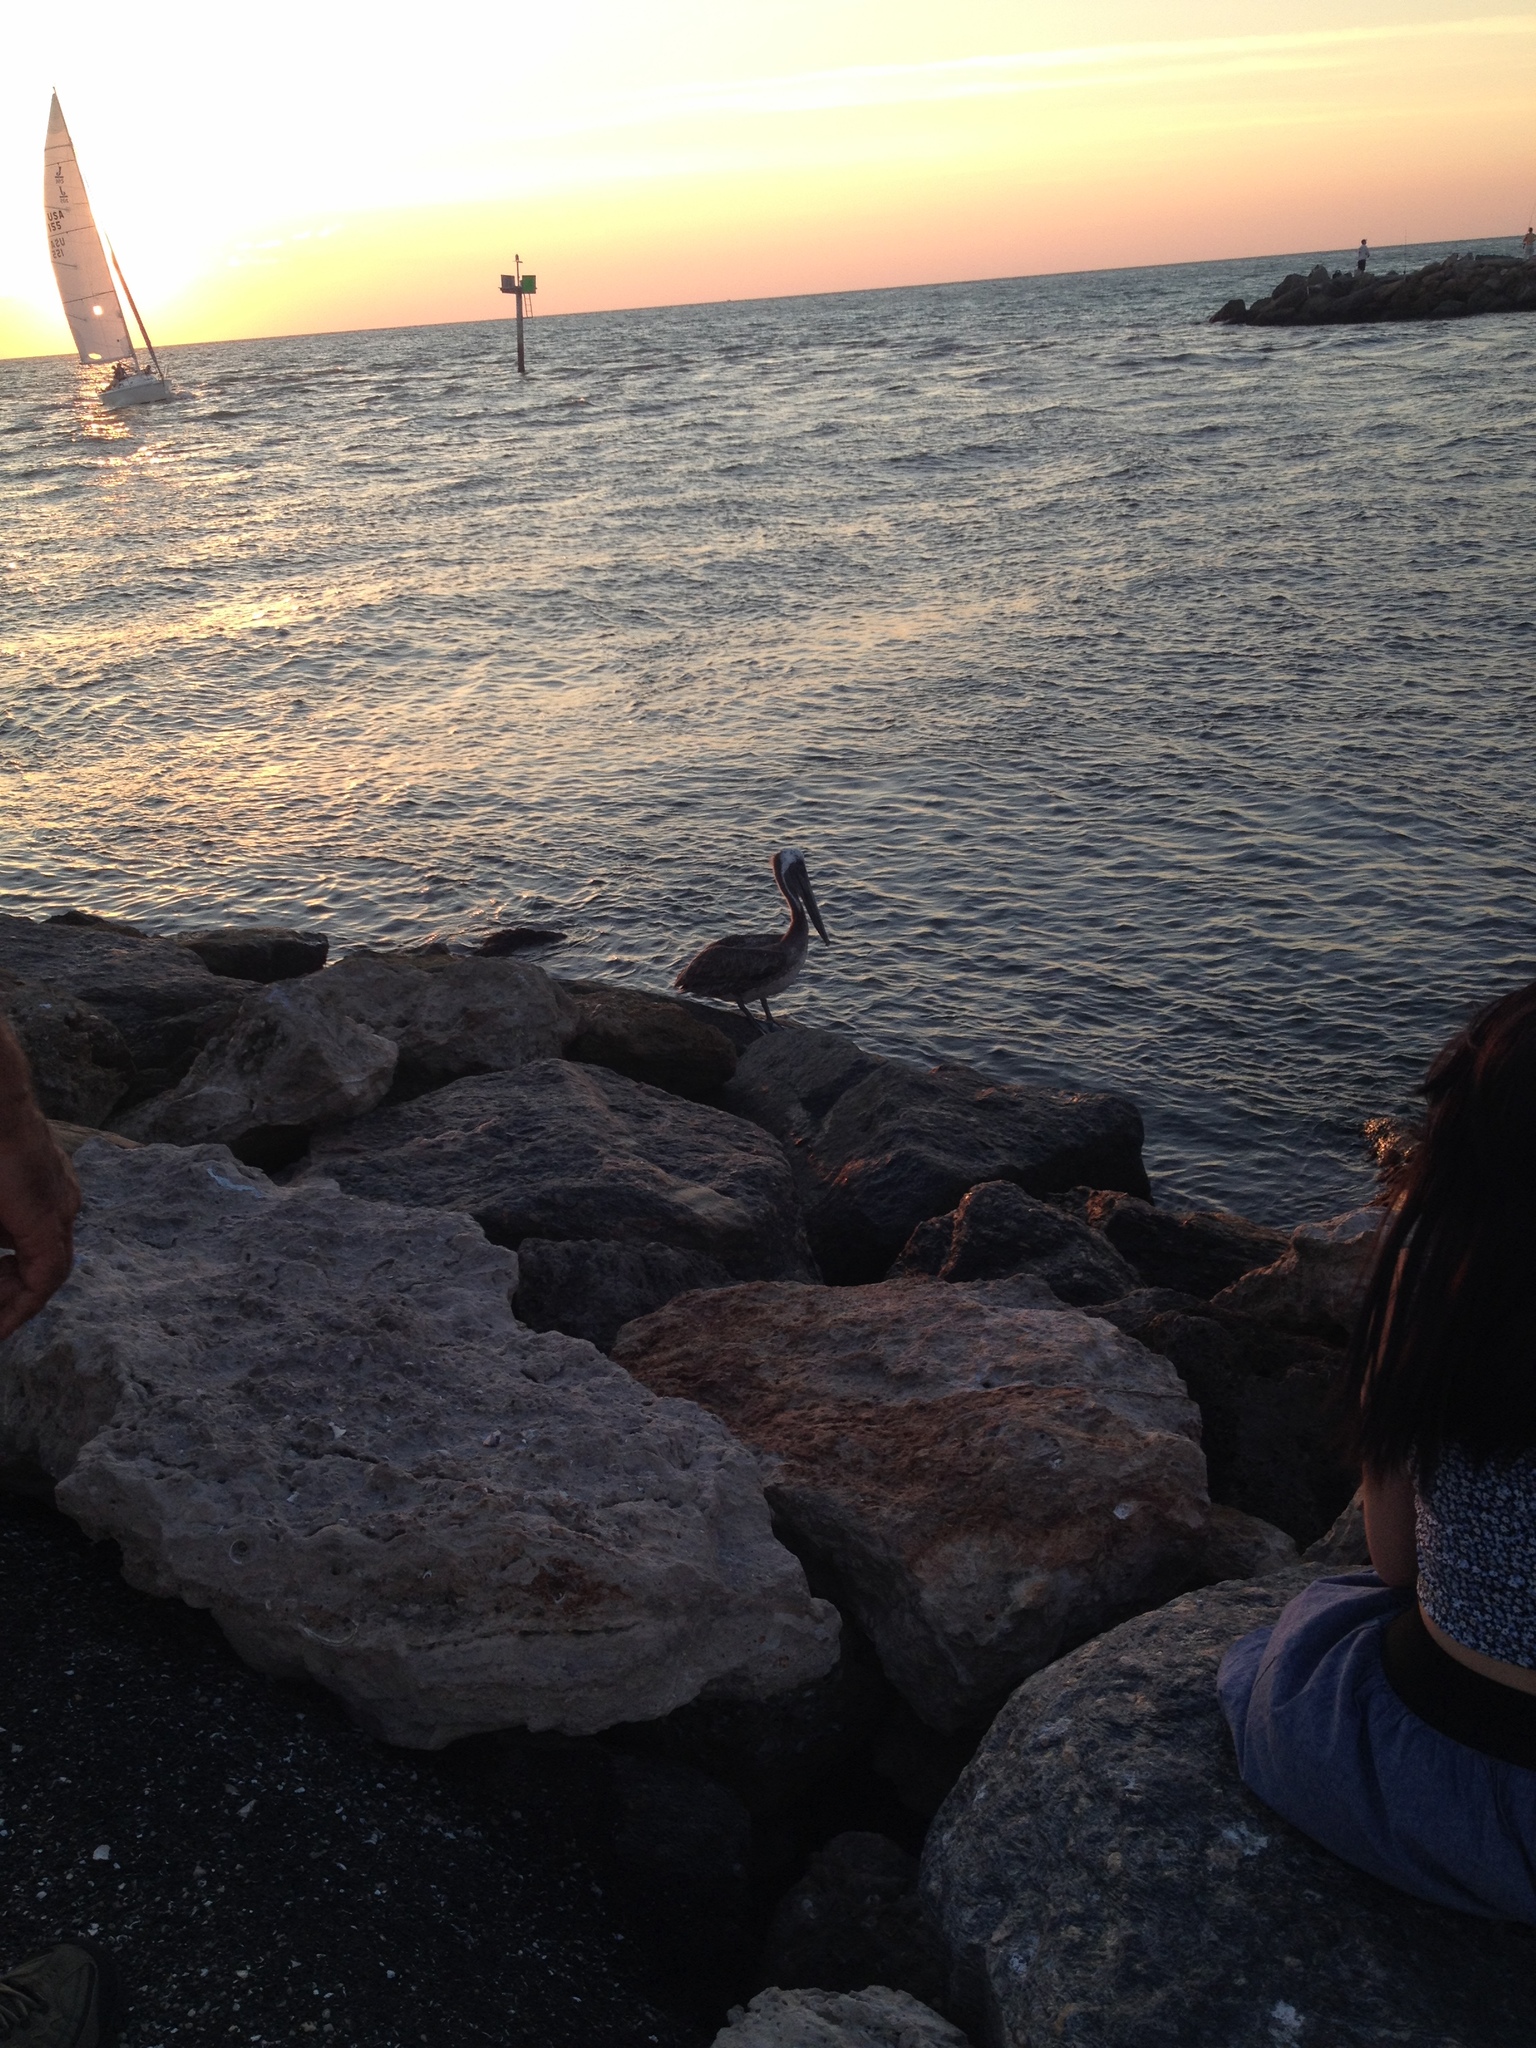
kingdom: Animalia
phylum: Chordata
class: Aves
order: Pelecaniformes
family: Pelecanidae
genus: Pelecanus
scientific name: Pelecanus occidentalis
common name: Brown pelican
